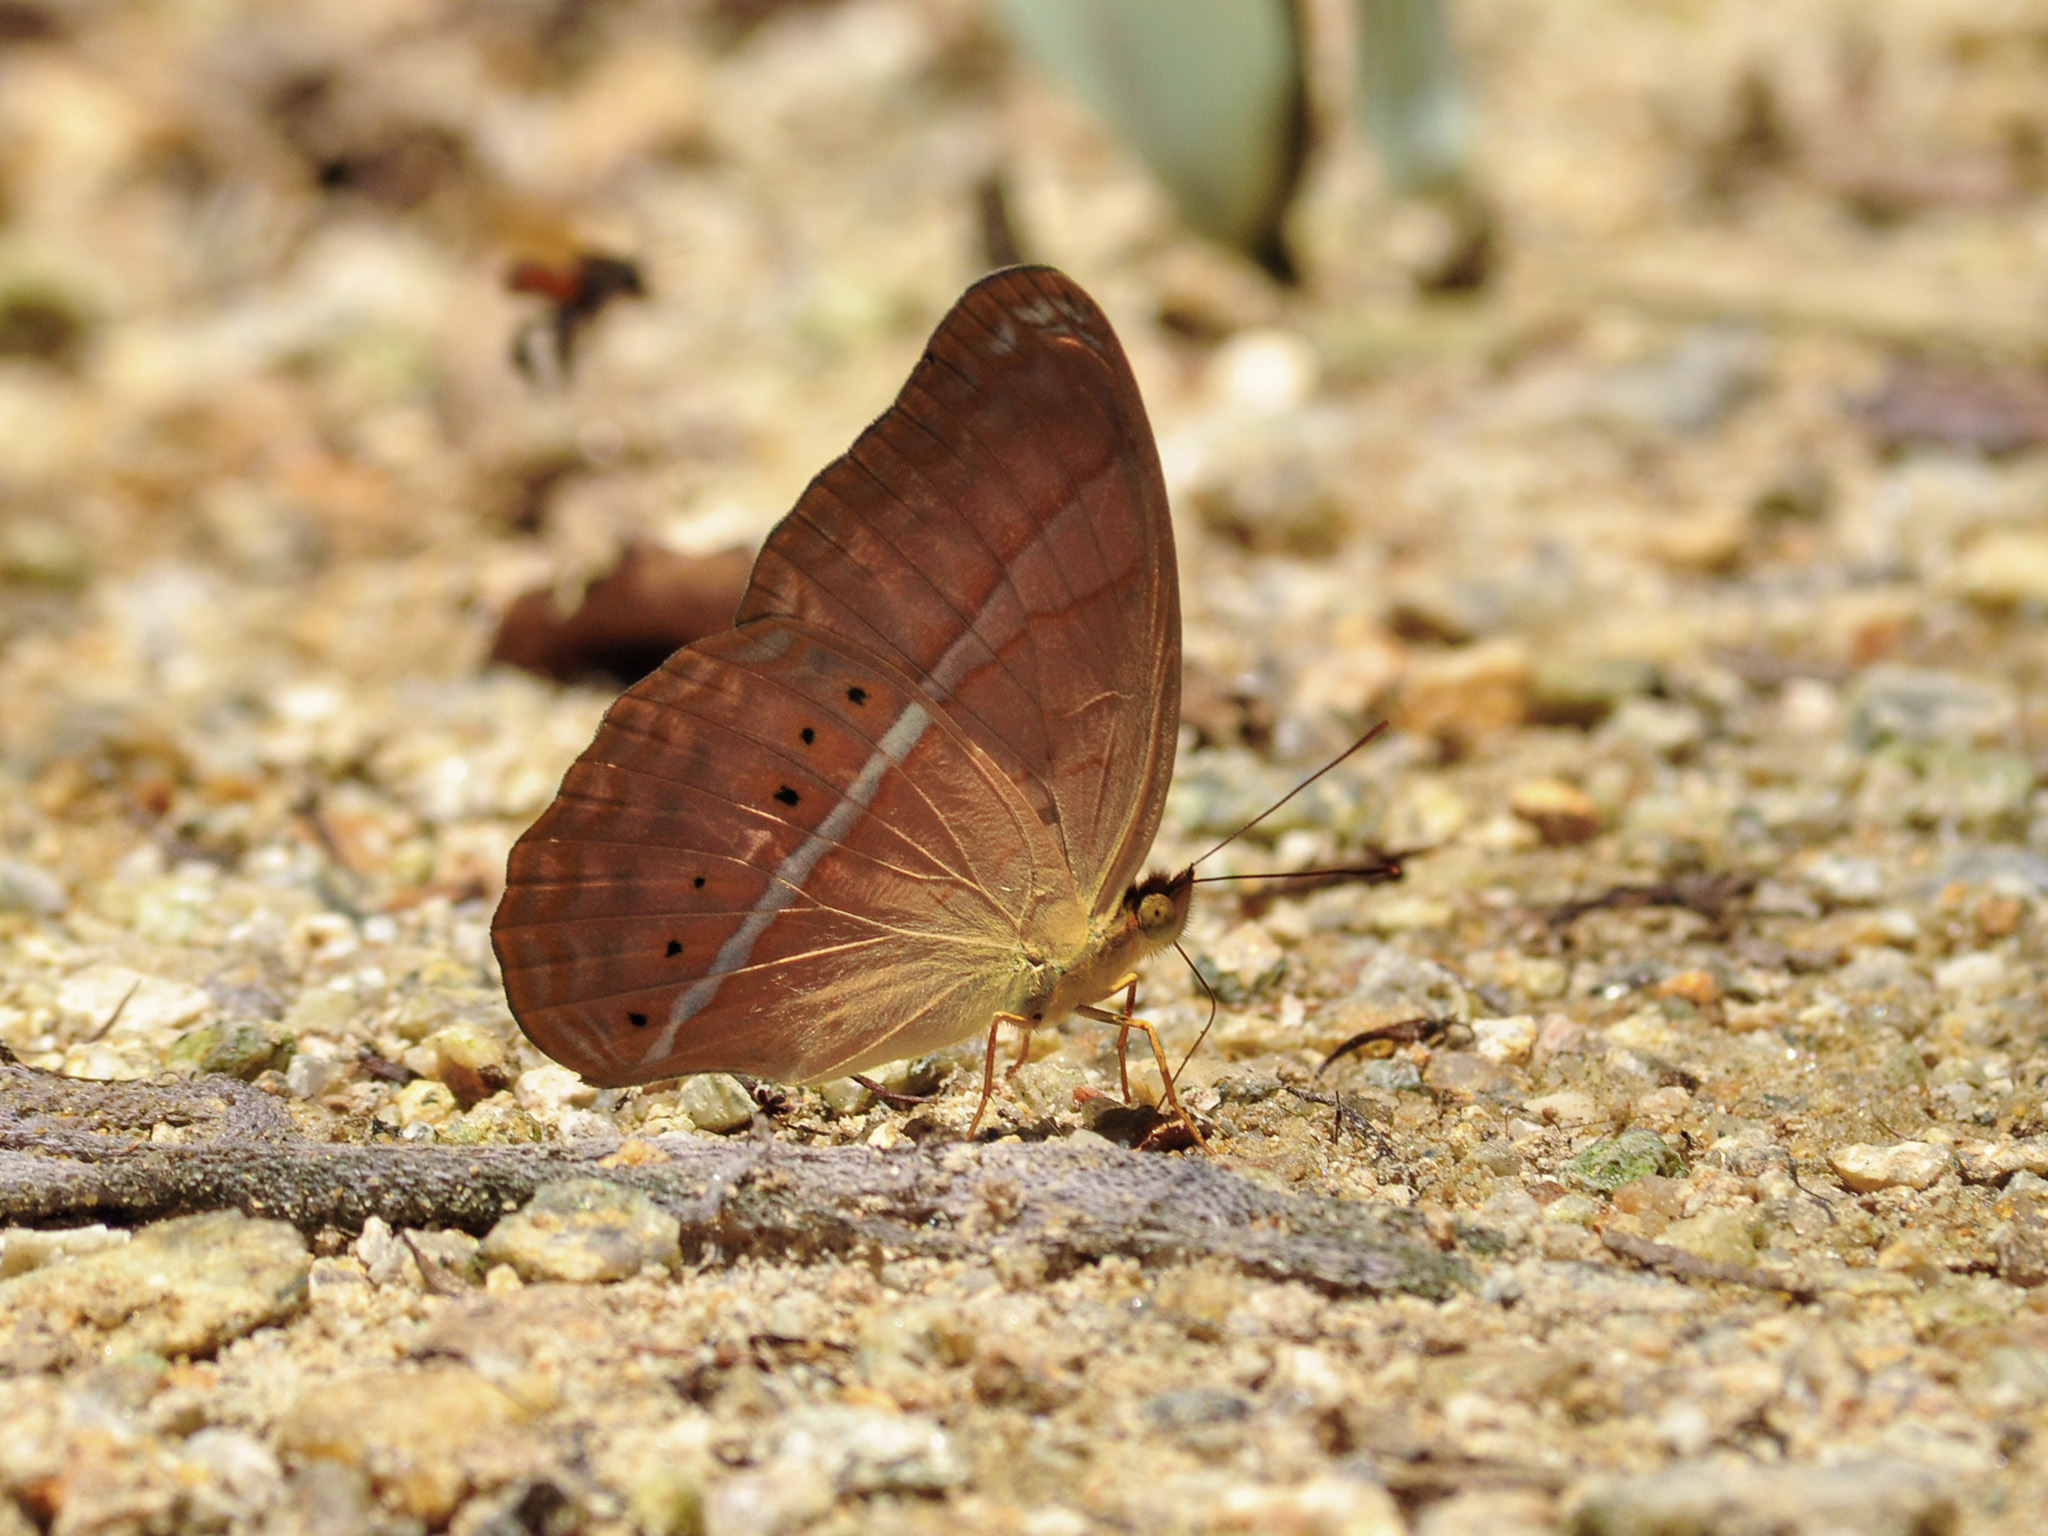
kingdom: Animalia
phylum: Arthropoda
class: Insecta
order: Lepidoptera
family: Nymphalidae
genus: Cirrochroa
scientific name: Cirrochroa malaya
